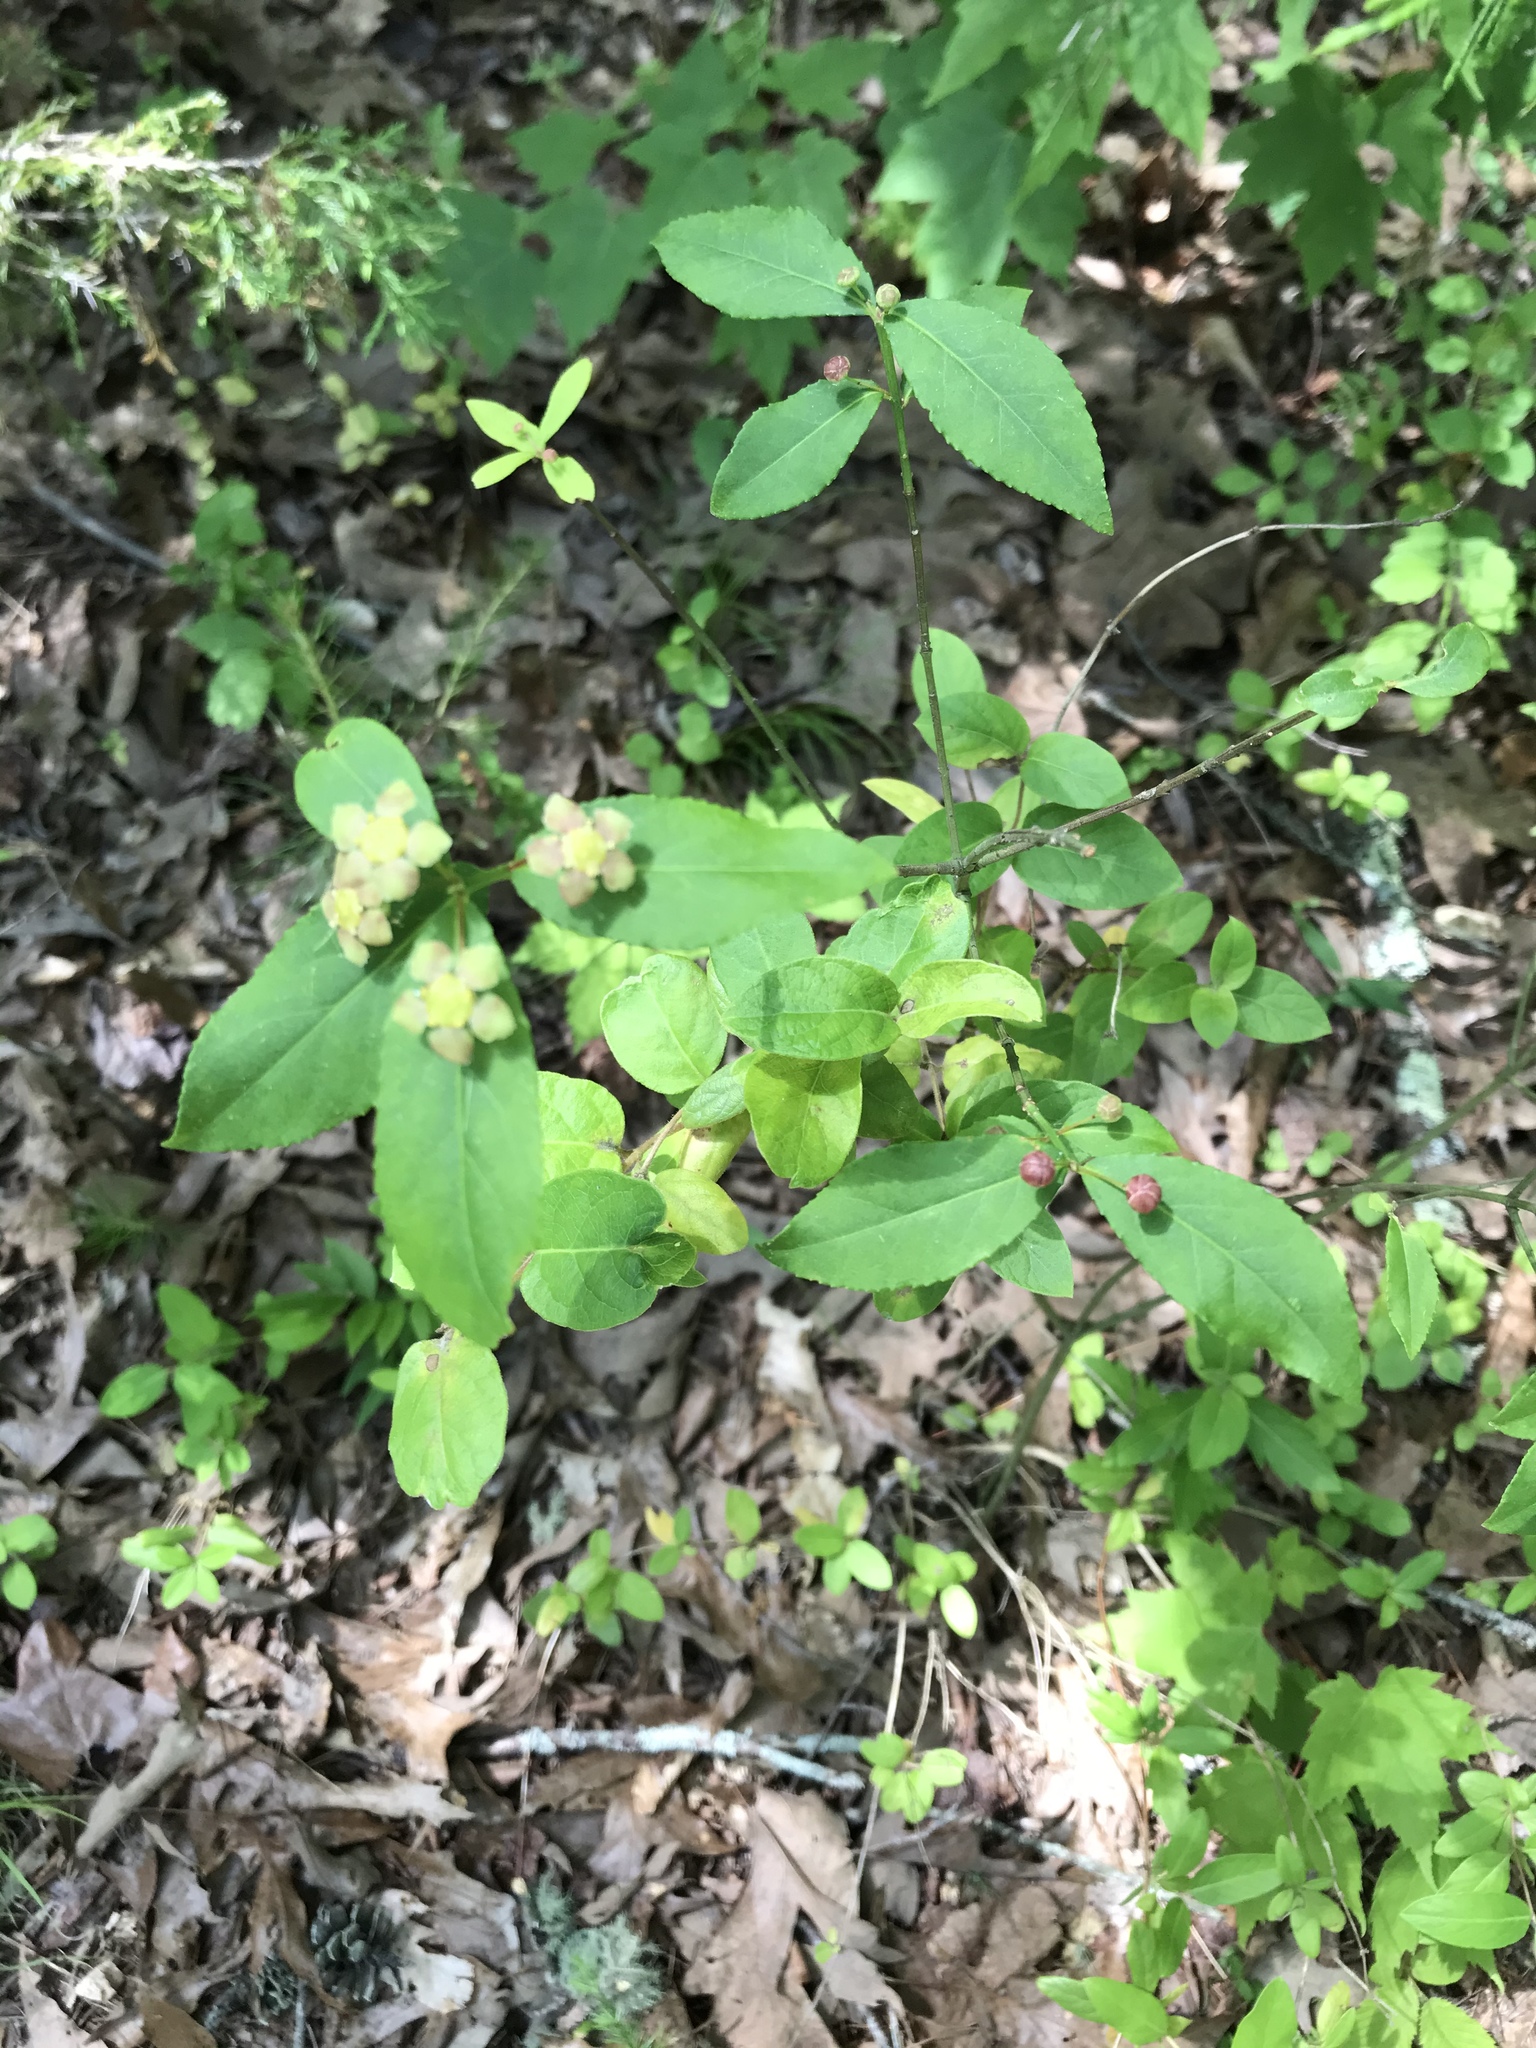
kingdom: Plantae
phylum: Tracheophyta
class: Magnoliopsida
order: Celastrales
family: Celastraceae
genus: Euonymus
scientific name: Euonymus americanus
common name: Bursting-heart
